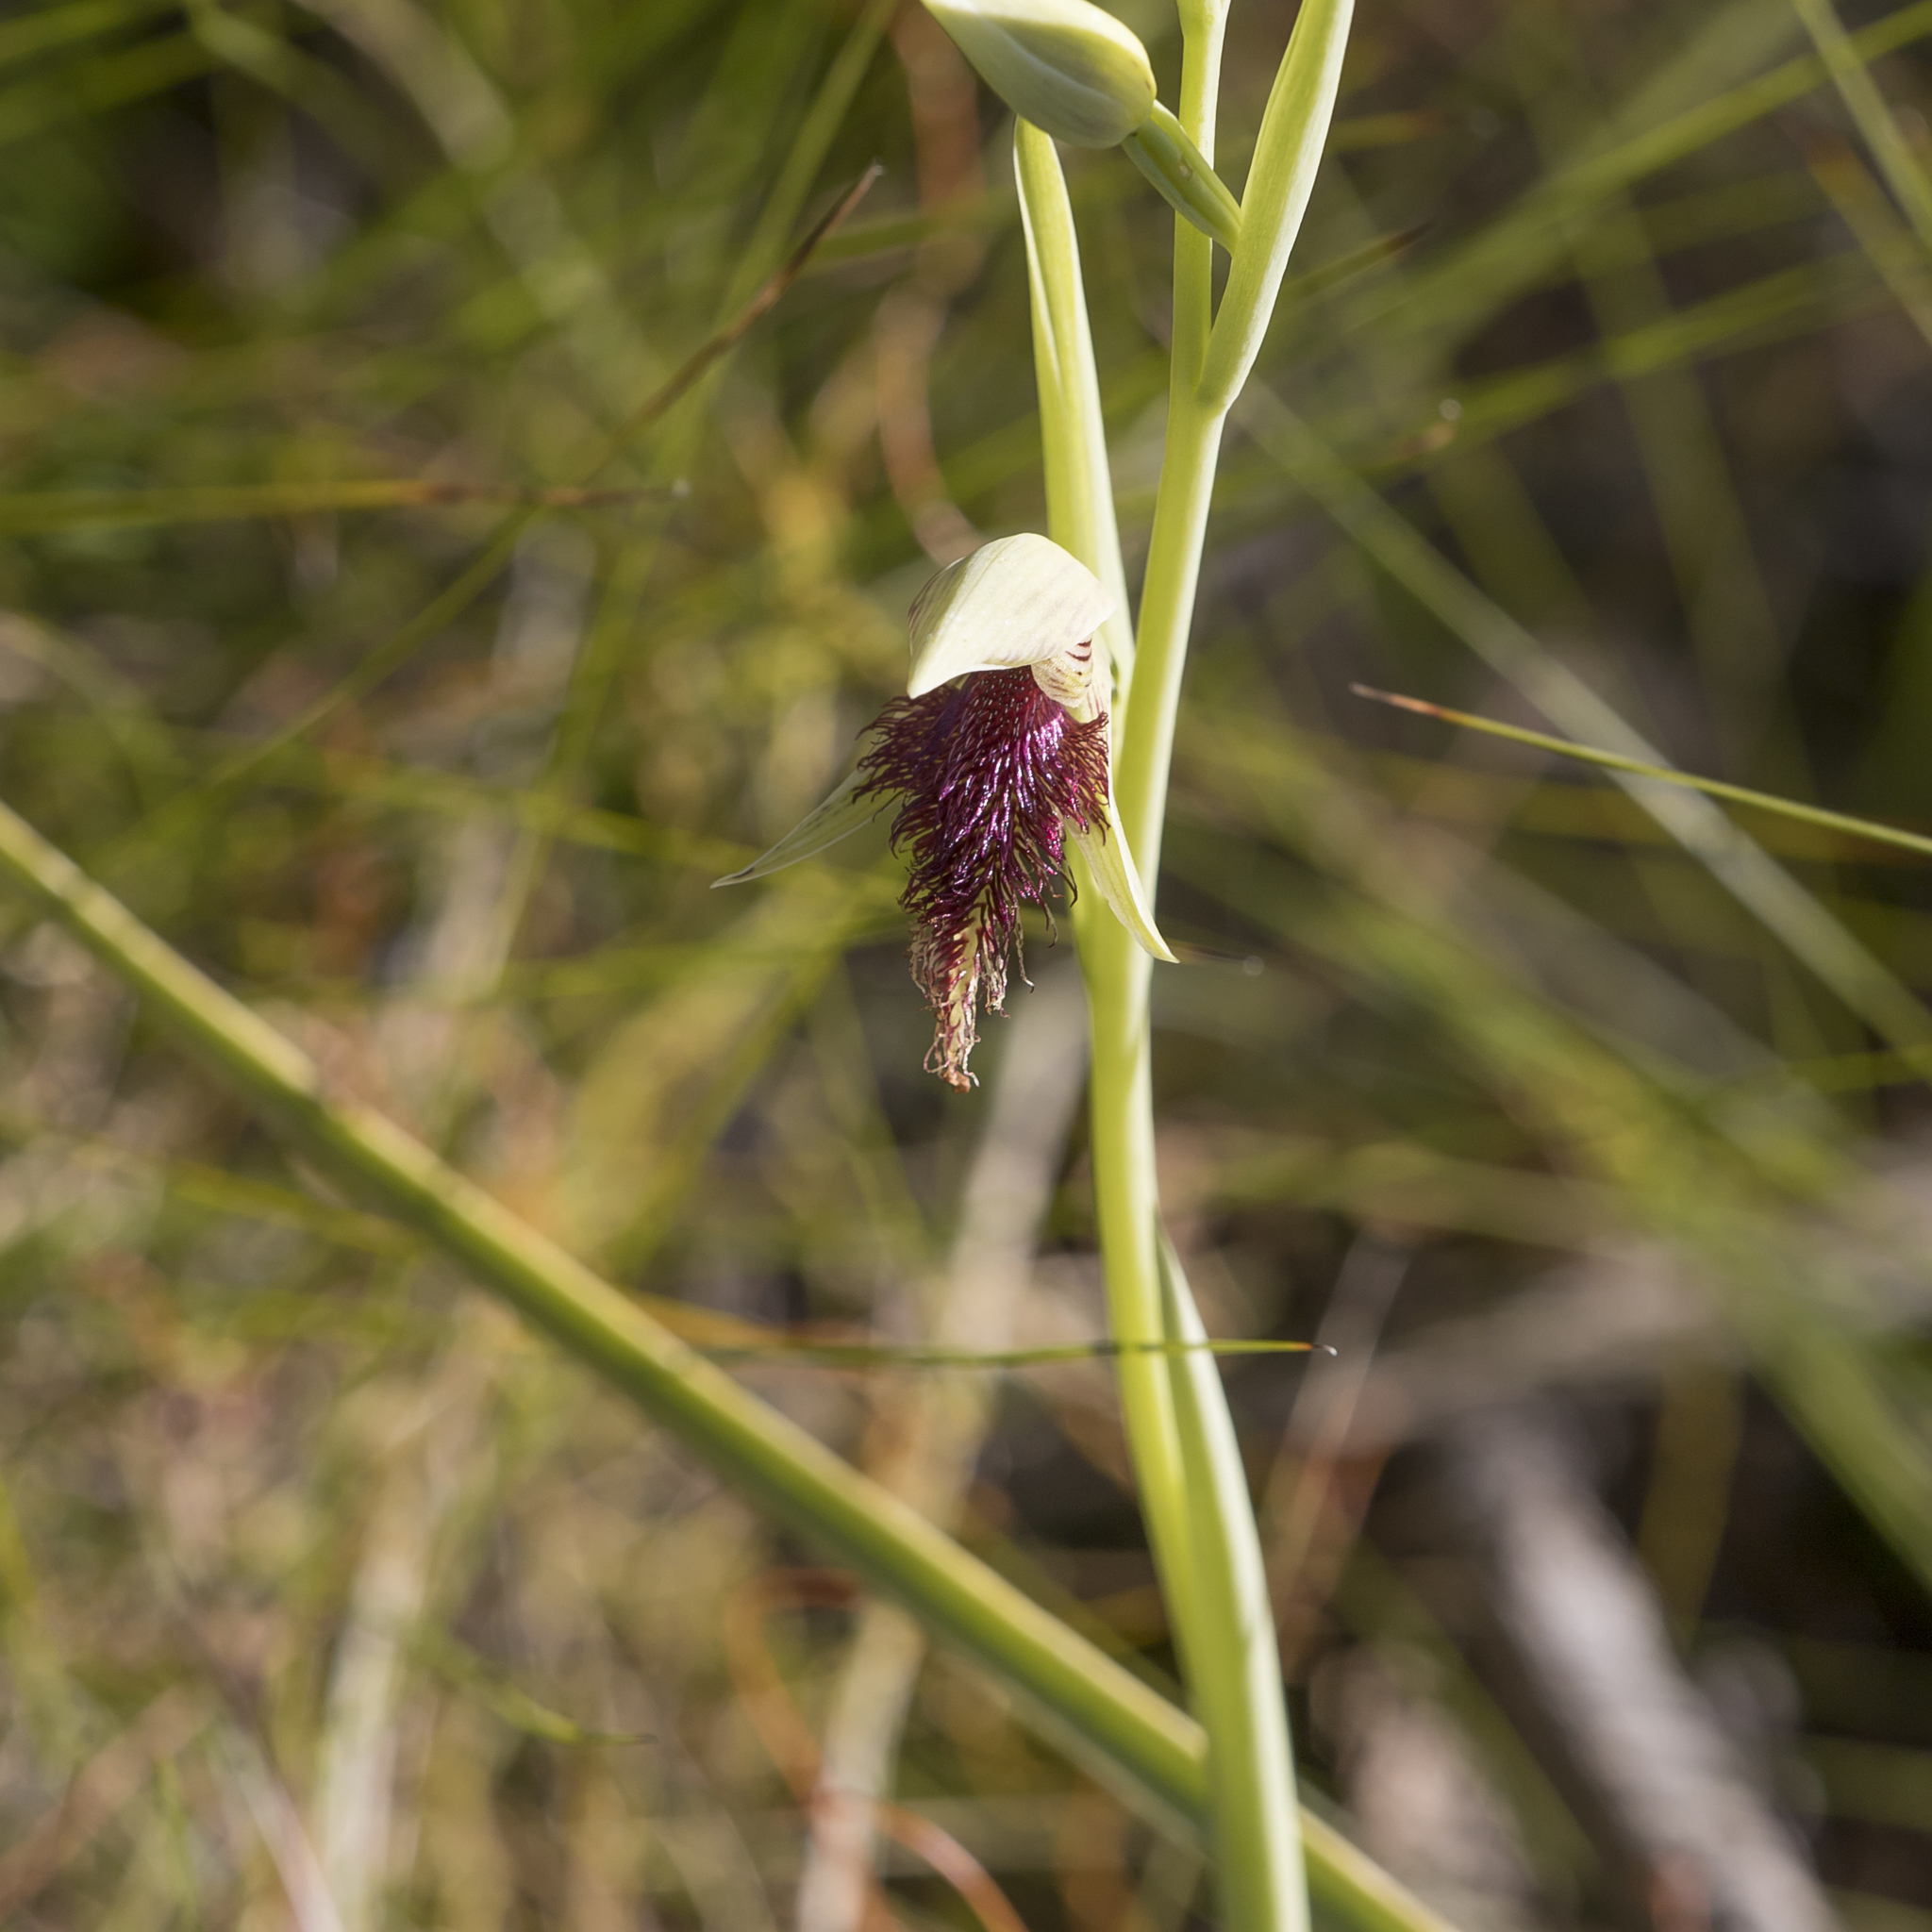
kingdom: Plantae
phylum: Tracheophyta
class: Liliopsida
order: Asparagales
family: Orchidaceae
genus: Calochilus
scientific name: Calochilus robertsonii
